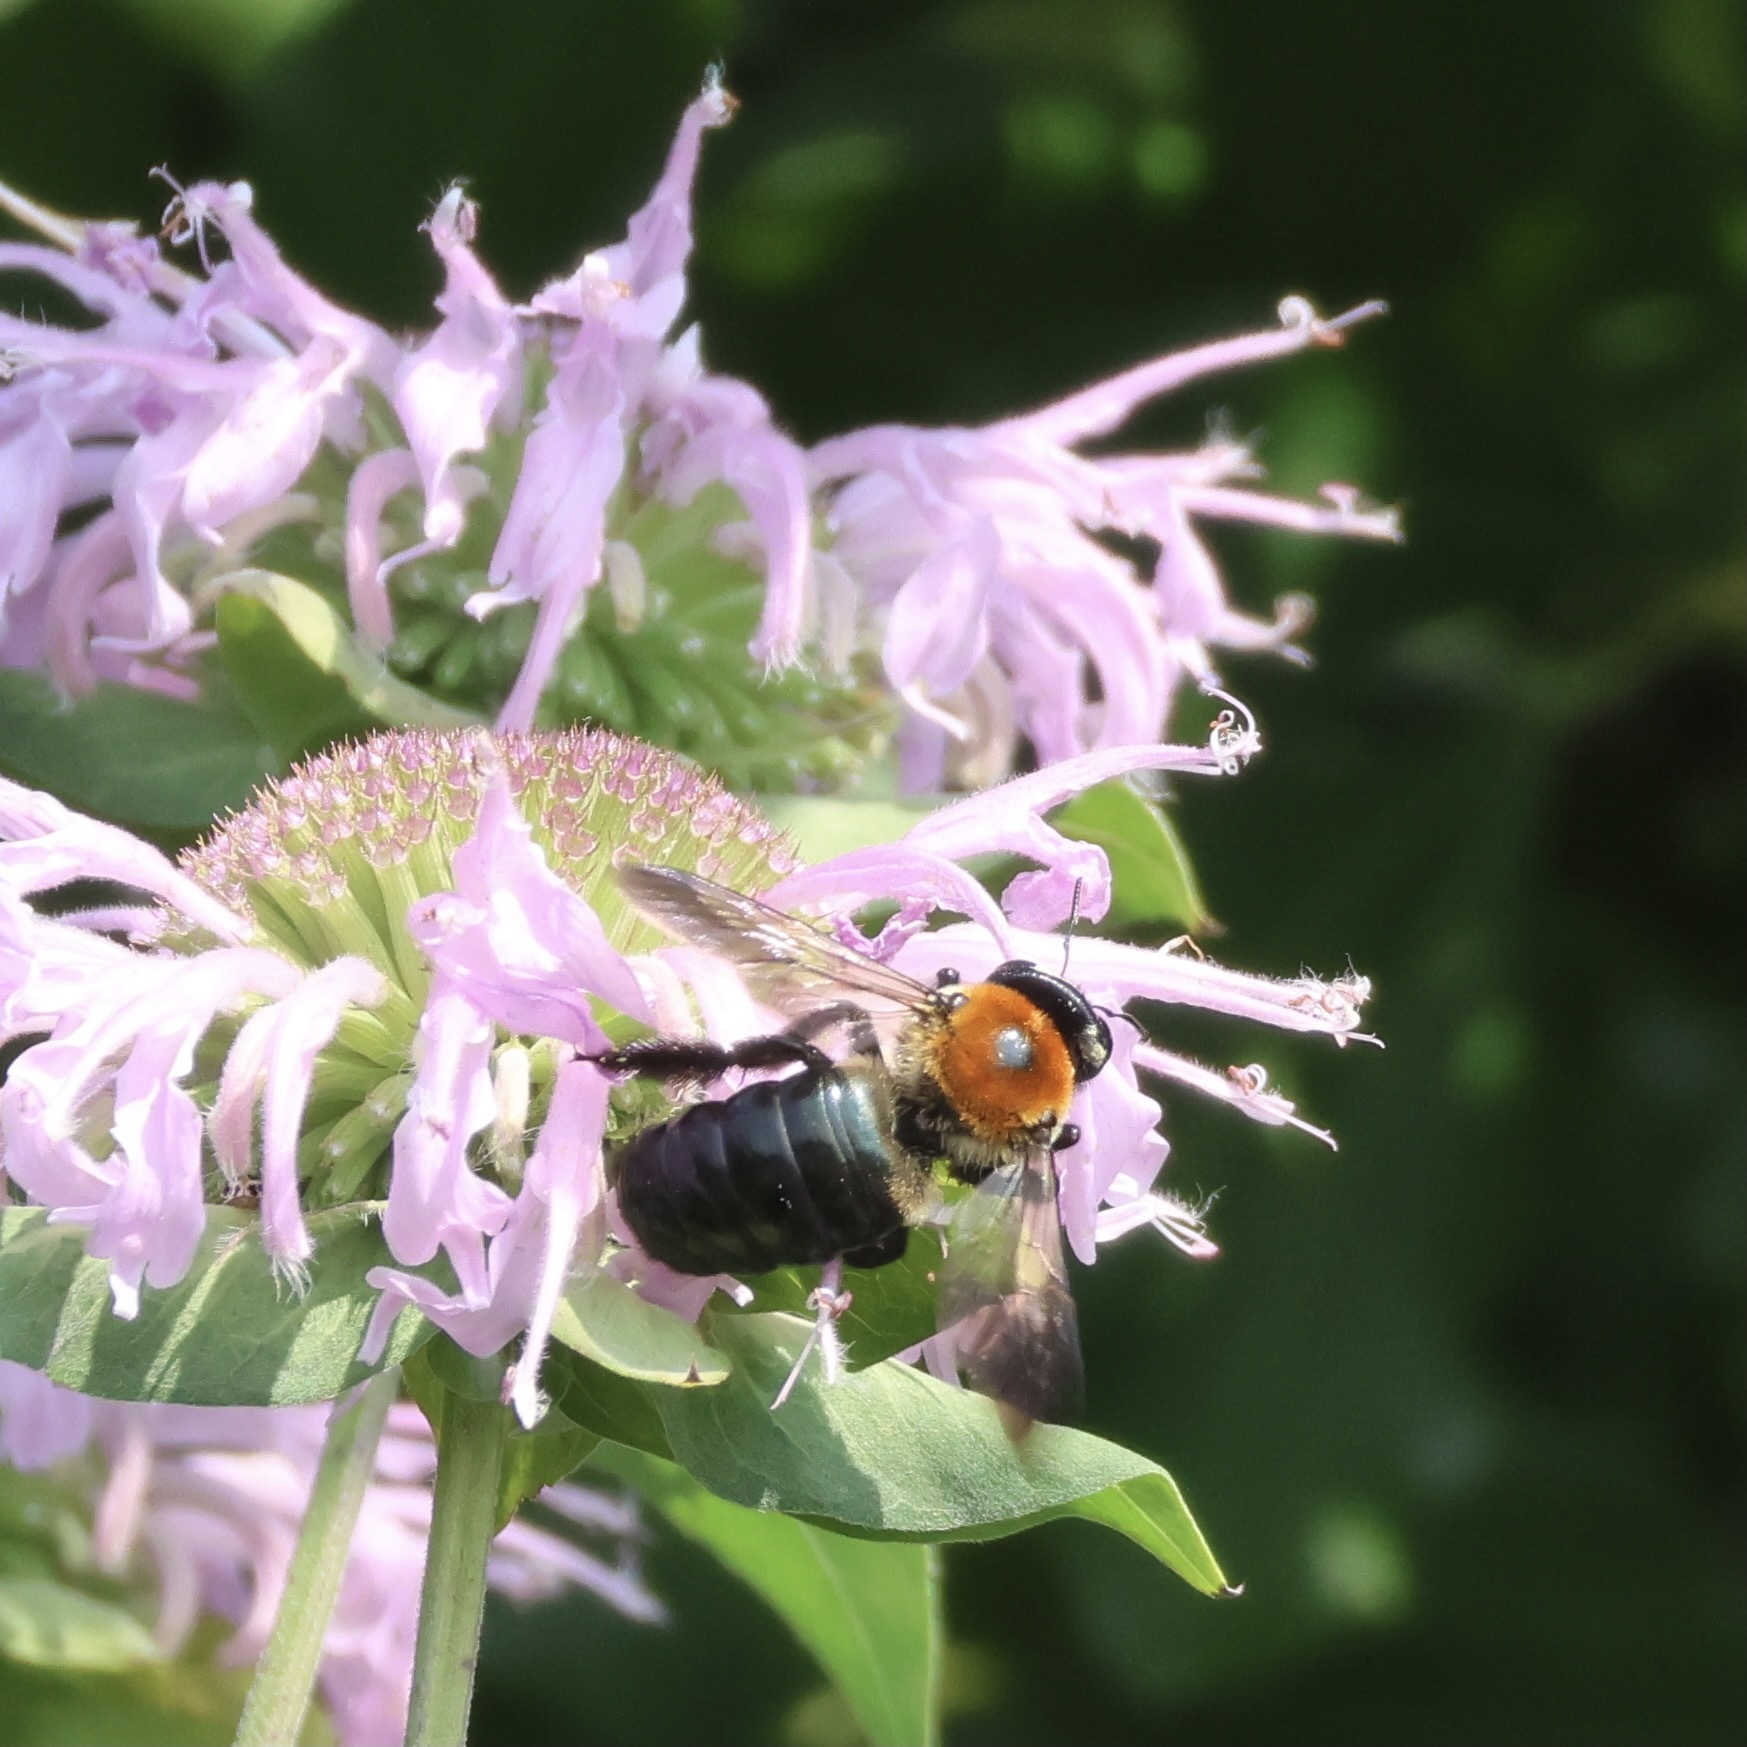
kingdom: Animalia
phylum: Arthropoda
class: Insecta
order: Hymenoptera
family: Apidae
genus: Xylocopa
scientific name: Xylocopa virginica
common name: Carpenter bee
